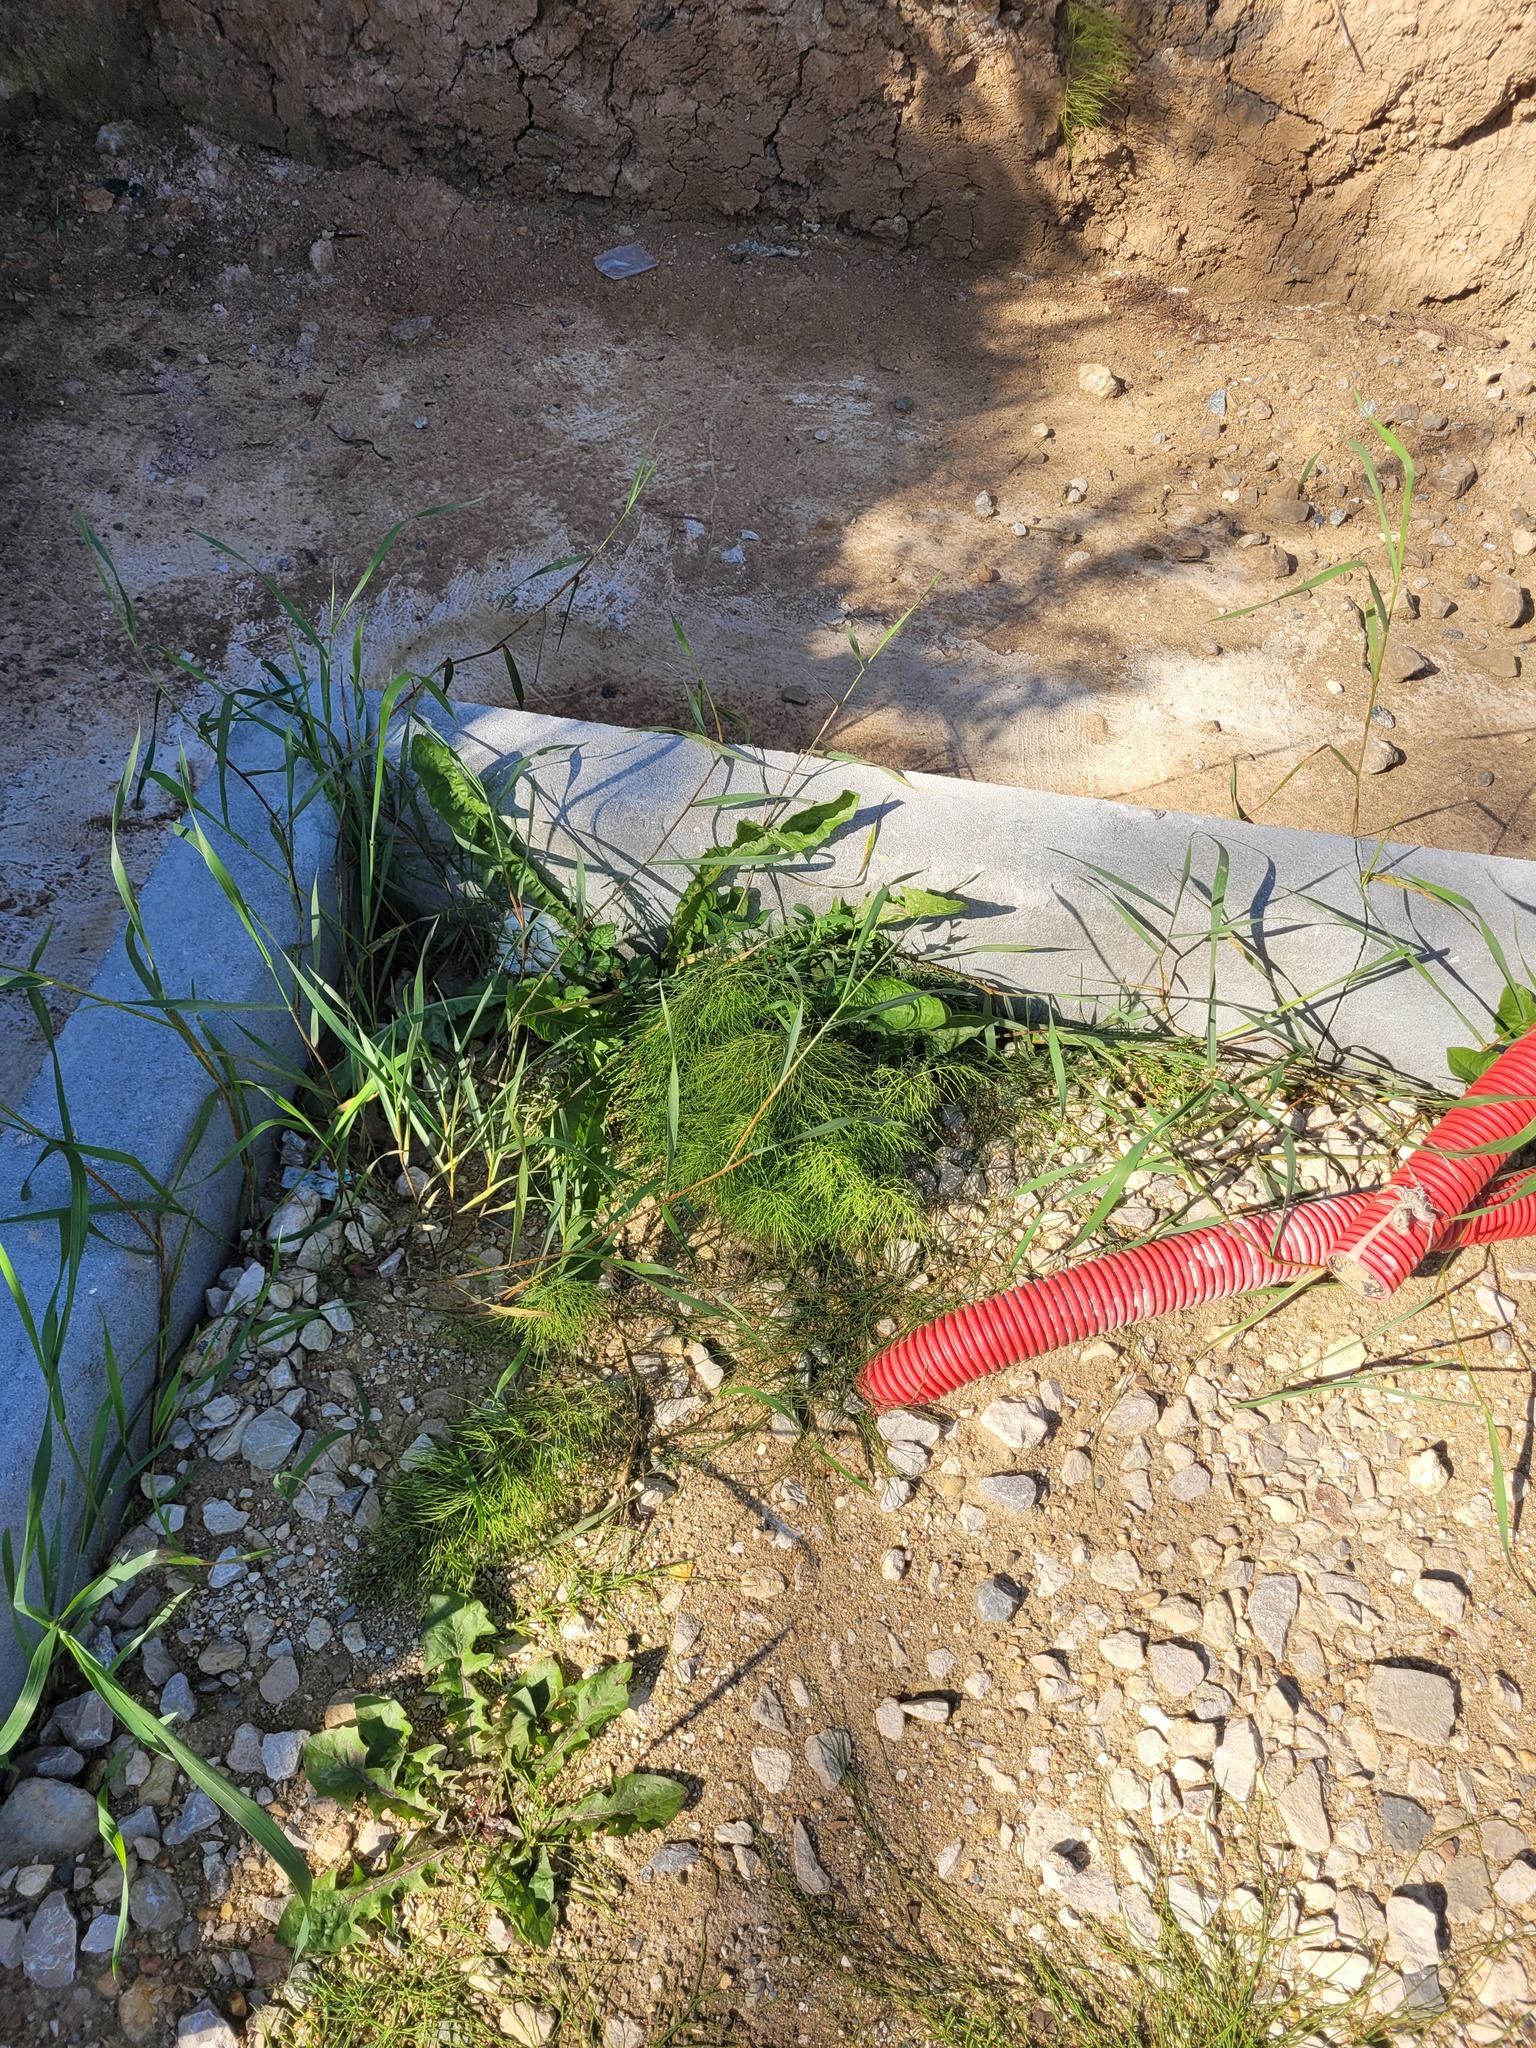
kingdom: Plantae
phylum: Tracheophyta
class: Polypodiopsida
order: Equisetales
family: Equisetaceae
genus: Equisetum
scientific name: Equisetum sylvaticum
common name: Wood horsetail
